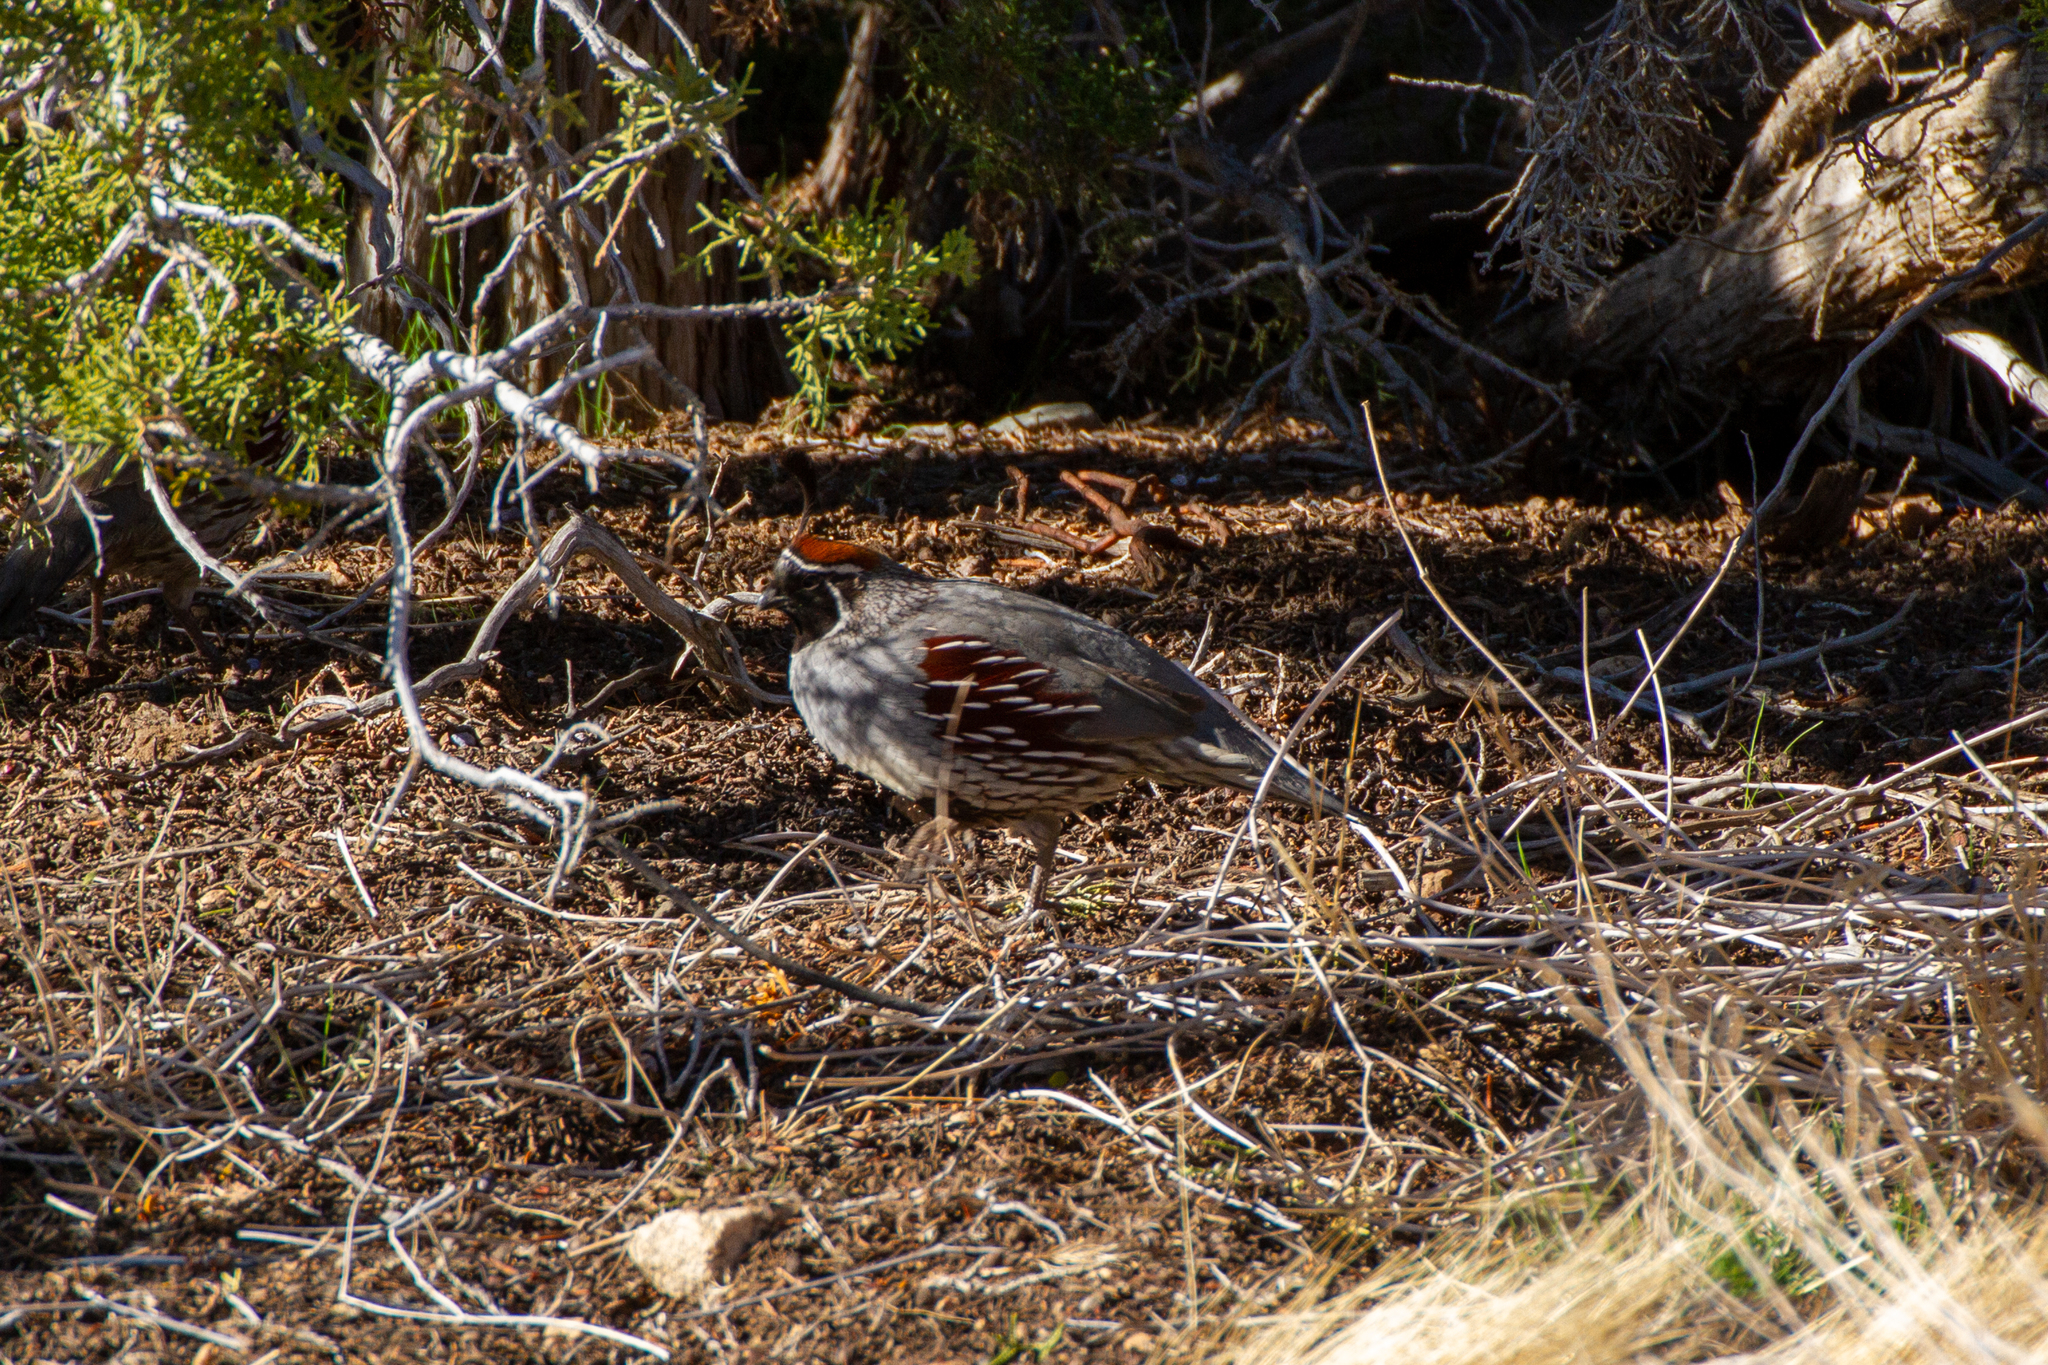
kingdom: Animalia
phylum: Chordata
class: Aves
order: Galliformes
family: Odontophoridae
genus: Callipepla
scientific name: Callipepla gambelii
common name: Gambel's quail
